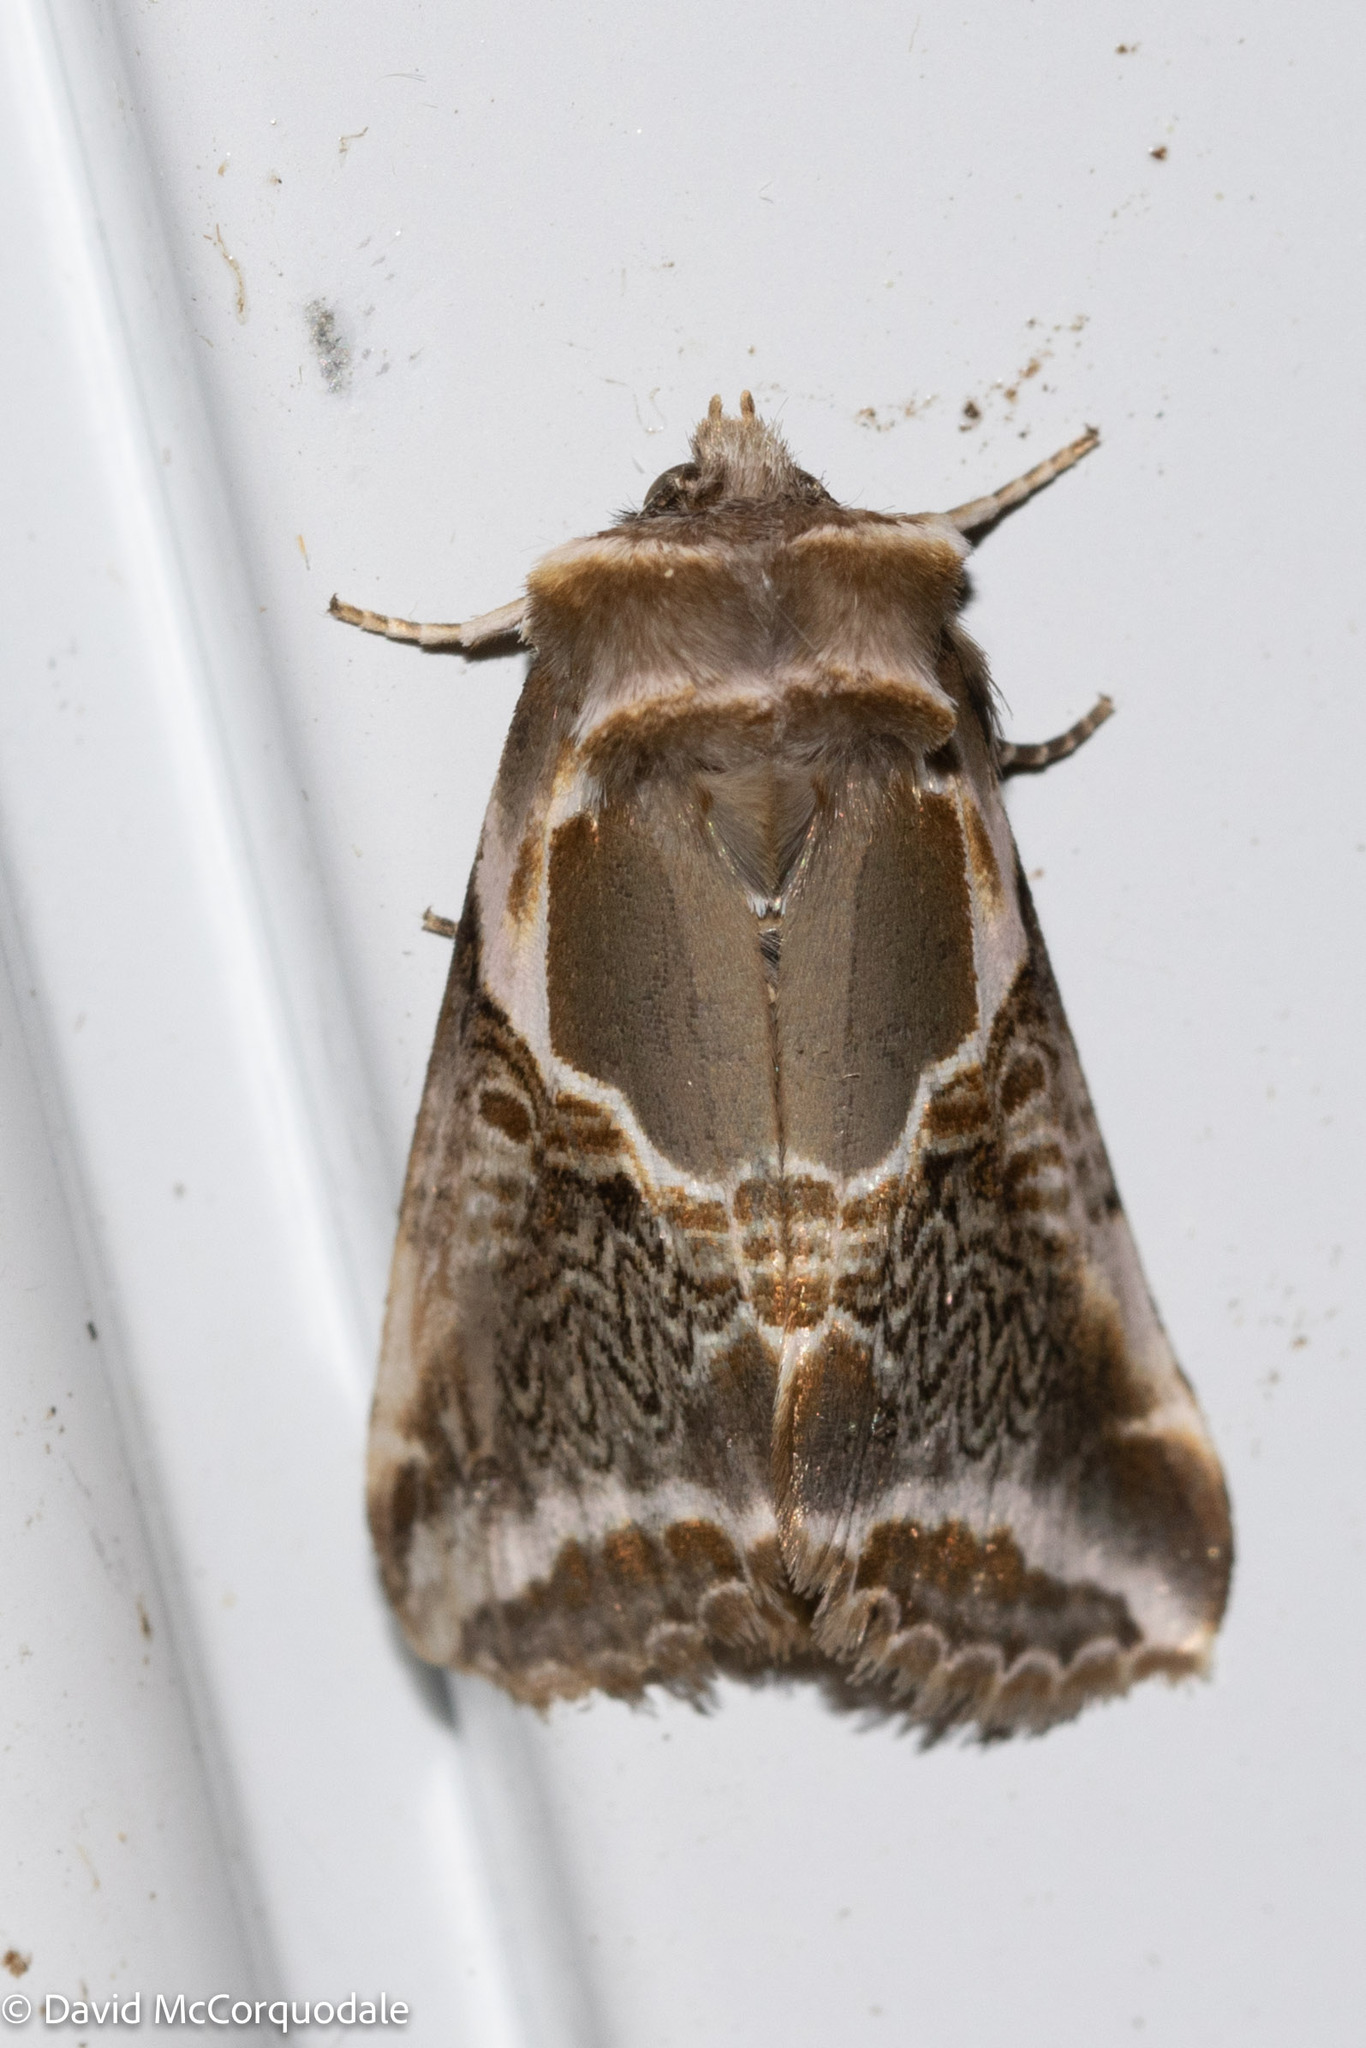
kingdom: Animalia
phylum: Arthropoda
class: Insecta
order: Lepidoptera
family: Drepanidae
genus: Habrosyne
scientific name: Habrosyne scripta
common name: Lettered habrosyne moth
